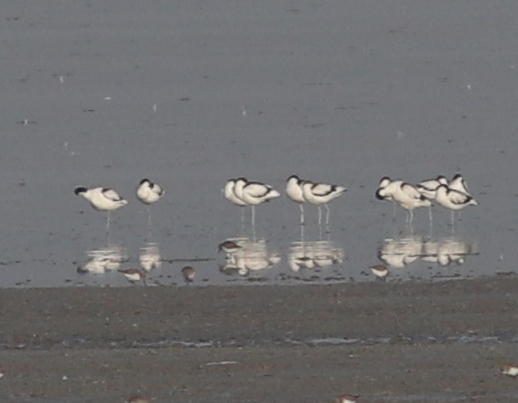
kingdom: Animalia
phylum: Chordata
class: Aves
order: Charadriiformes
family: Recurvirostridae
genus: Recurvirostra
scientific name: Recurvirostra avosetta
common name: Pied avocet
